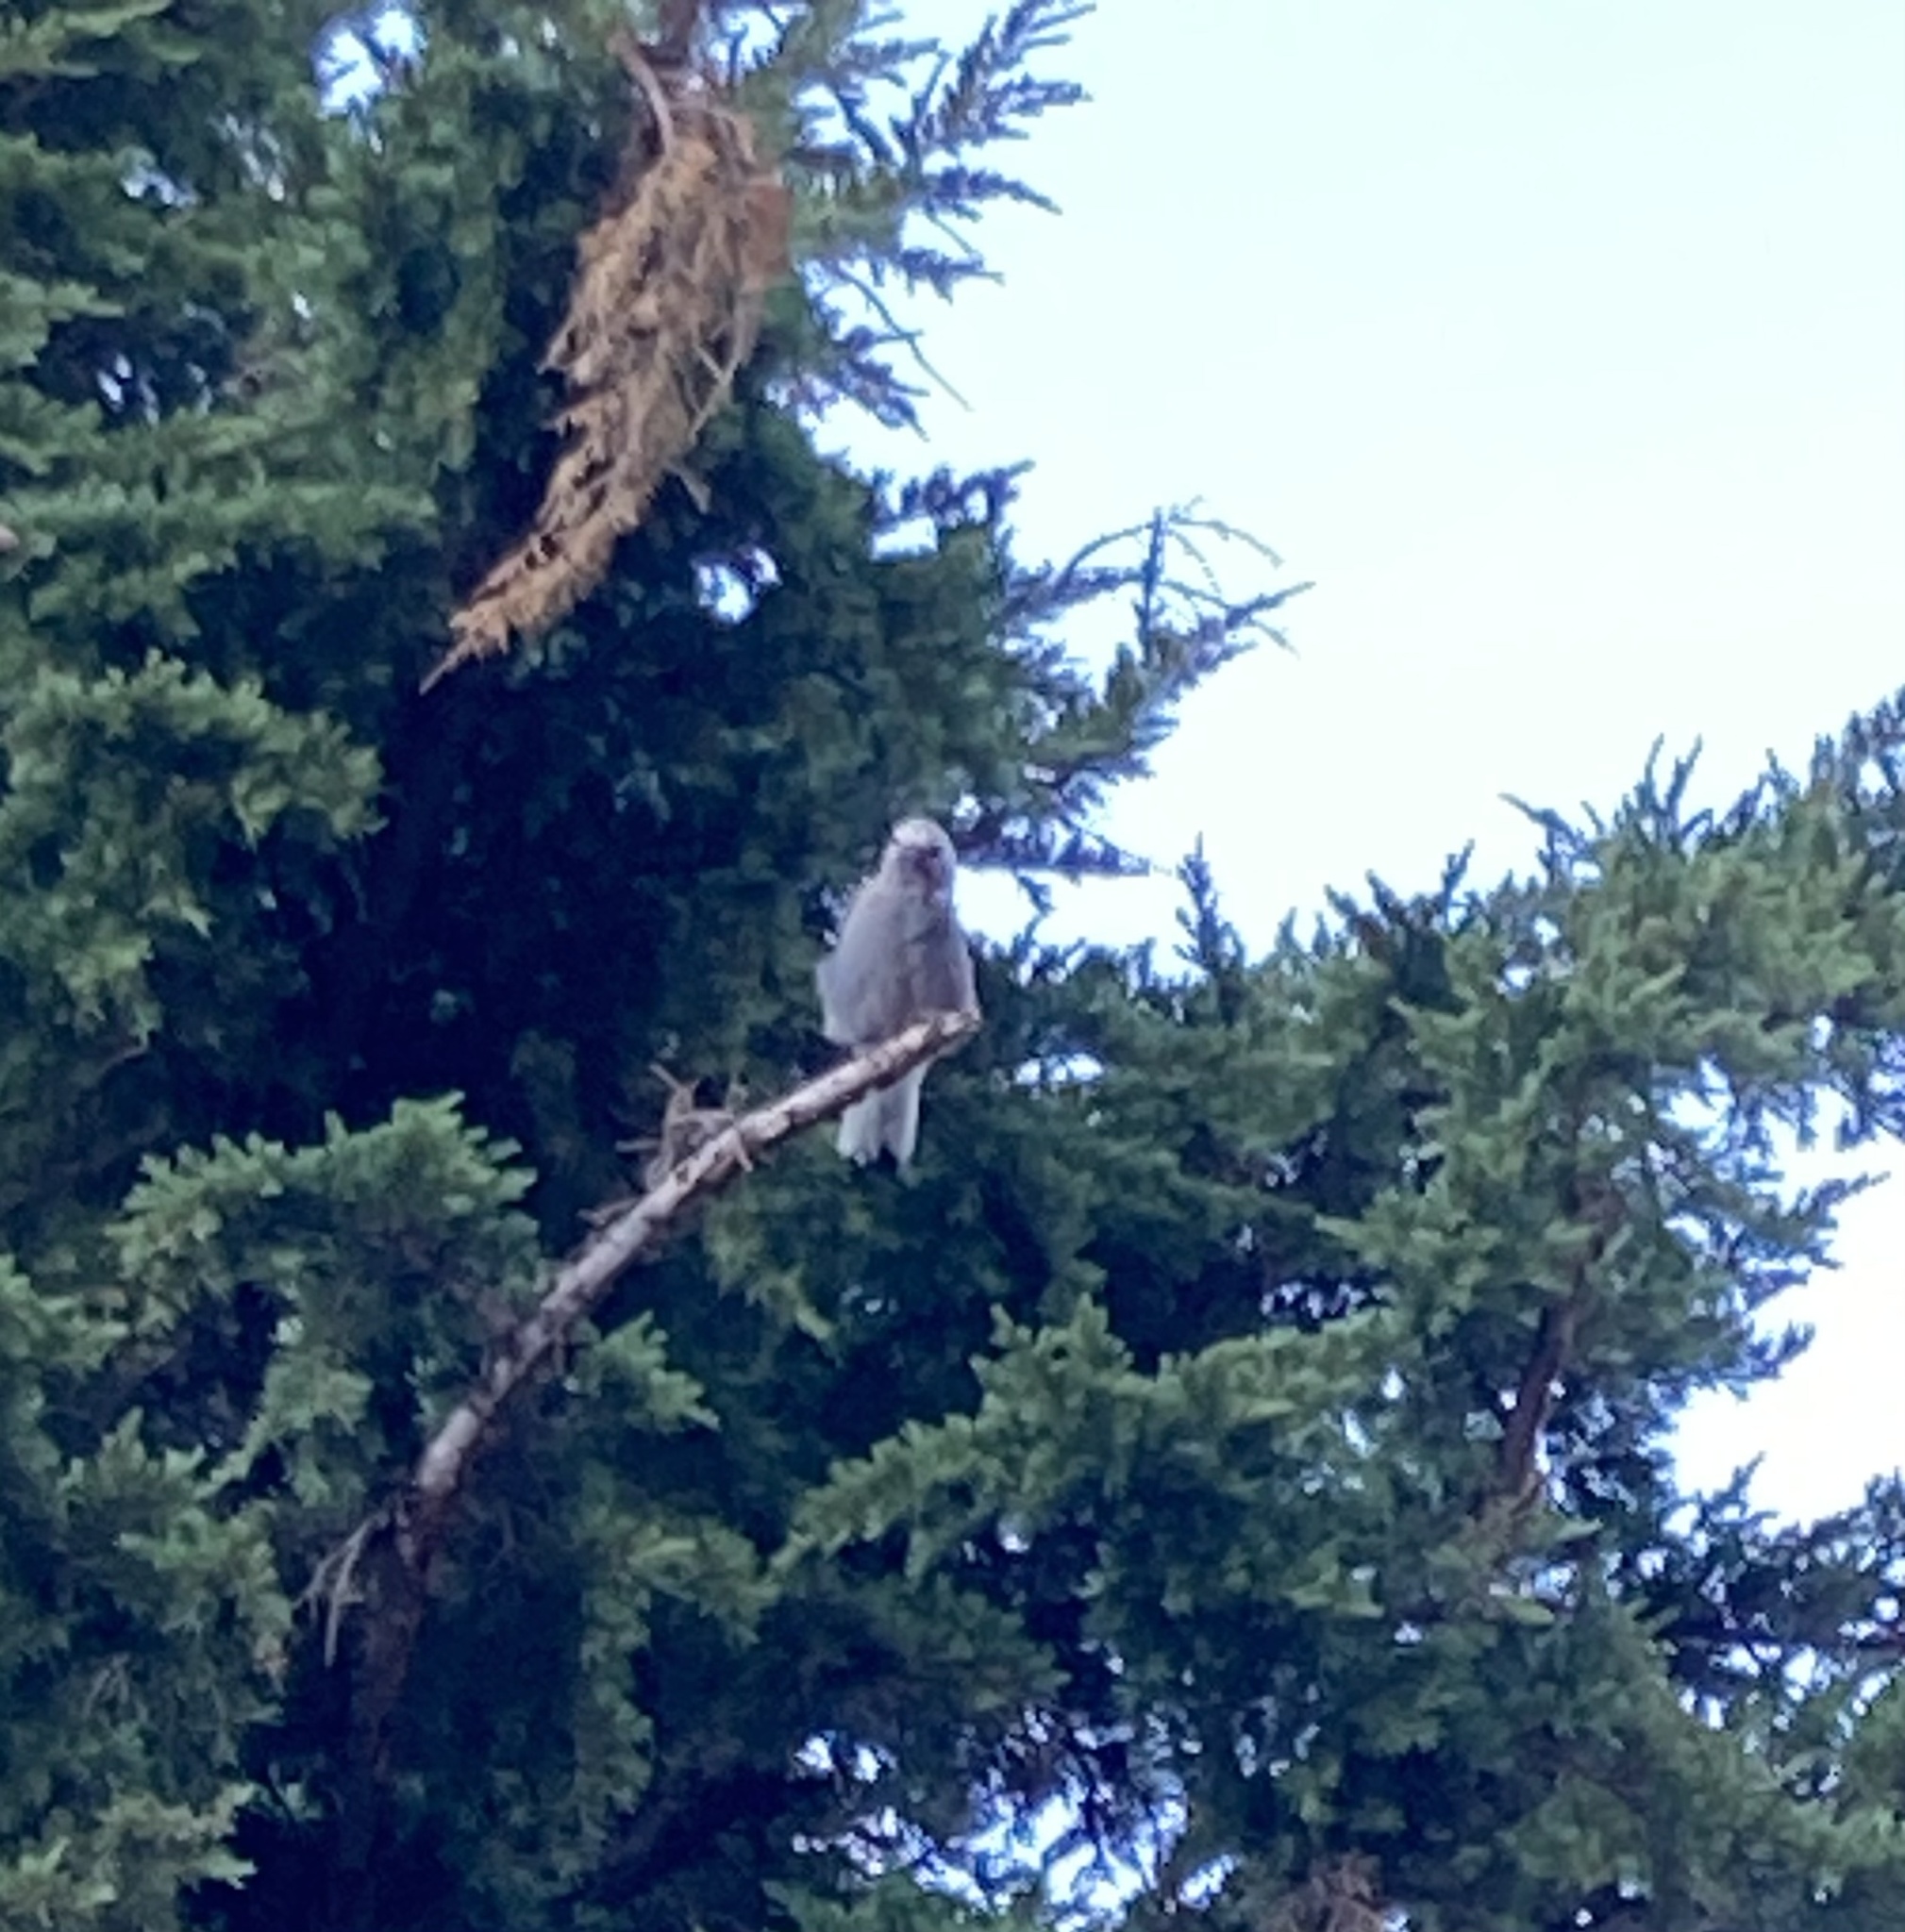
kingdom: Animalia
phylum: Chordata
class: Aves
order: Passeriformes
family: Corvidae
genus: Nucifraga
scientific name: Nucifraga columbiana
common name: Clark's nutcracker
